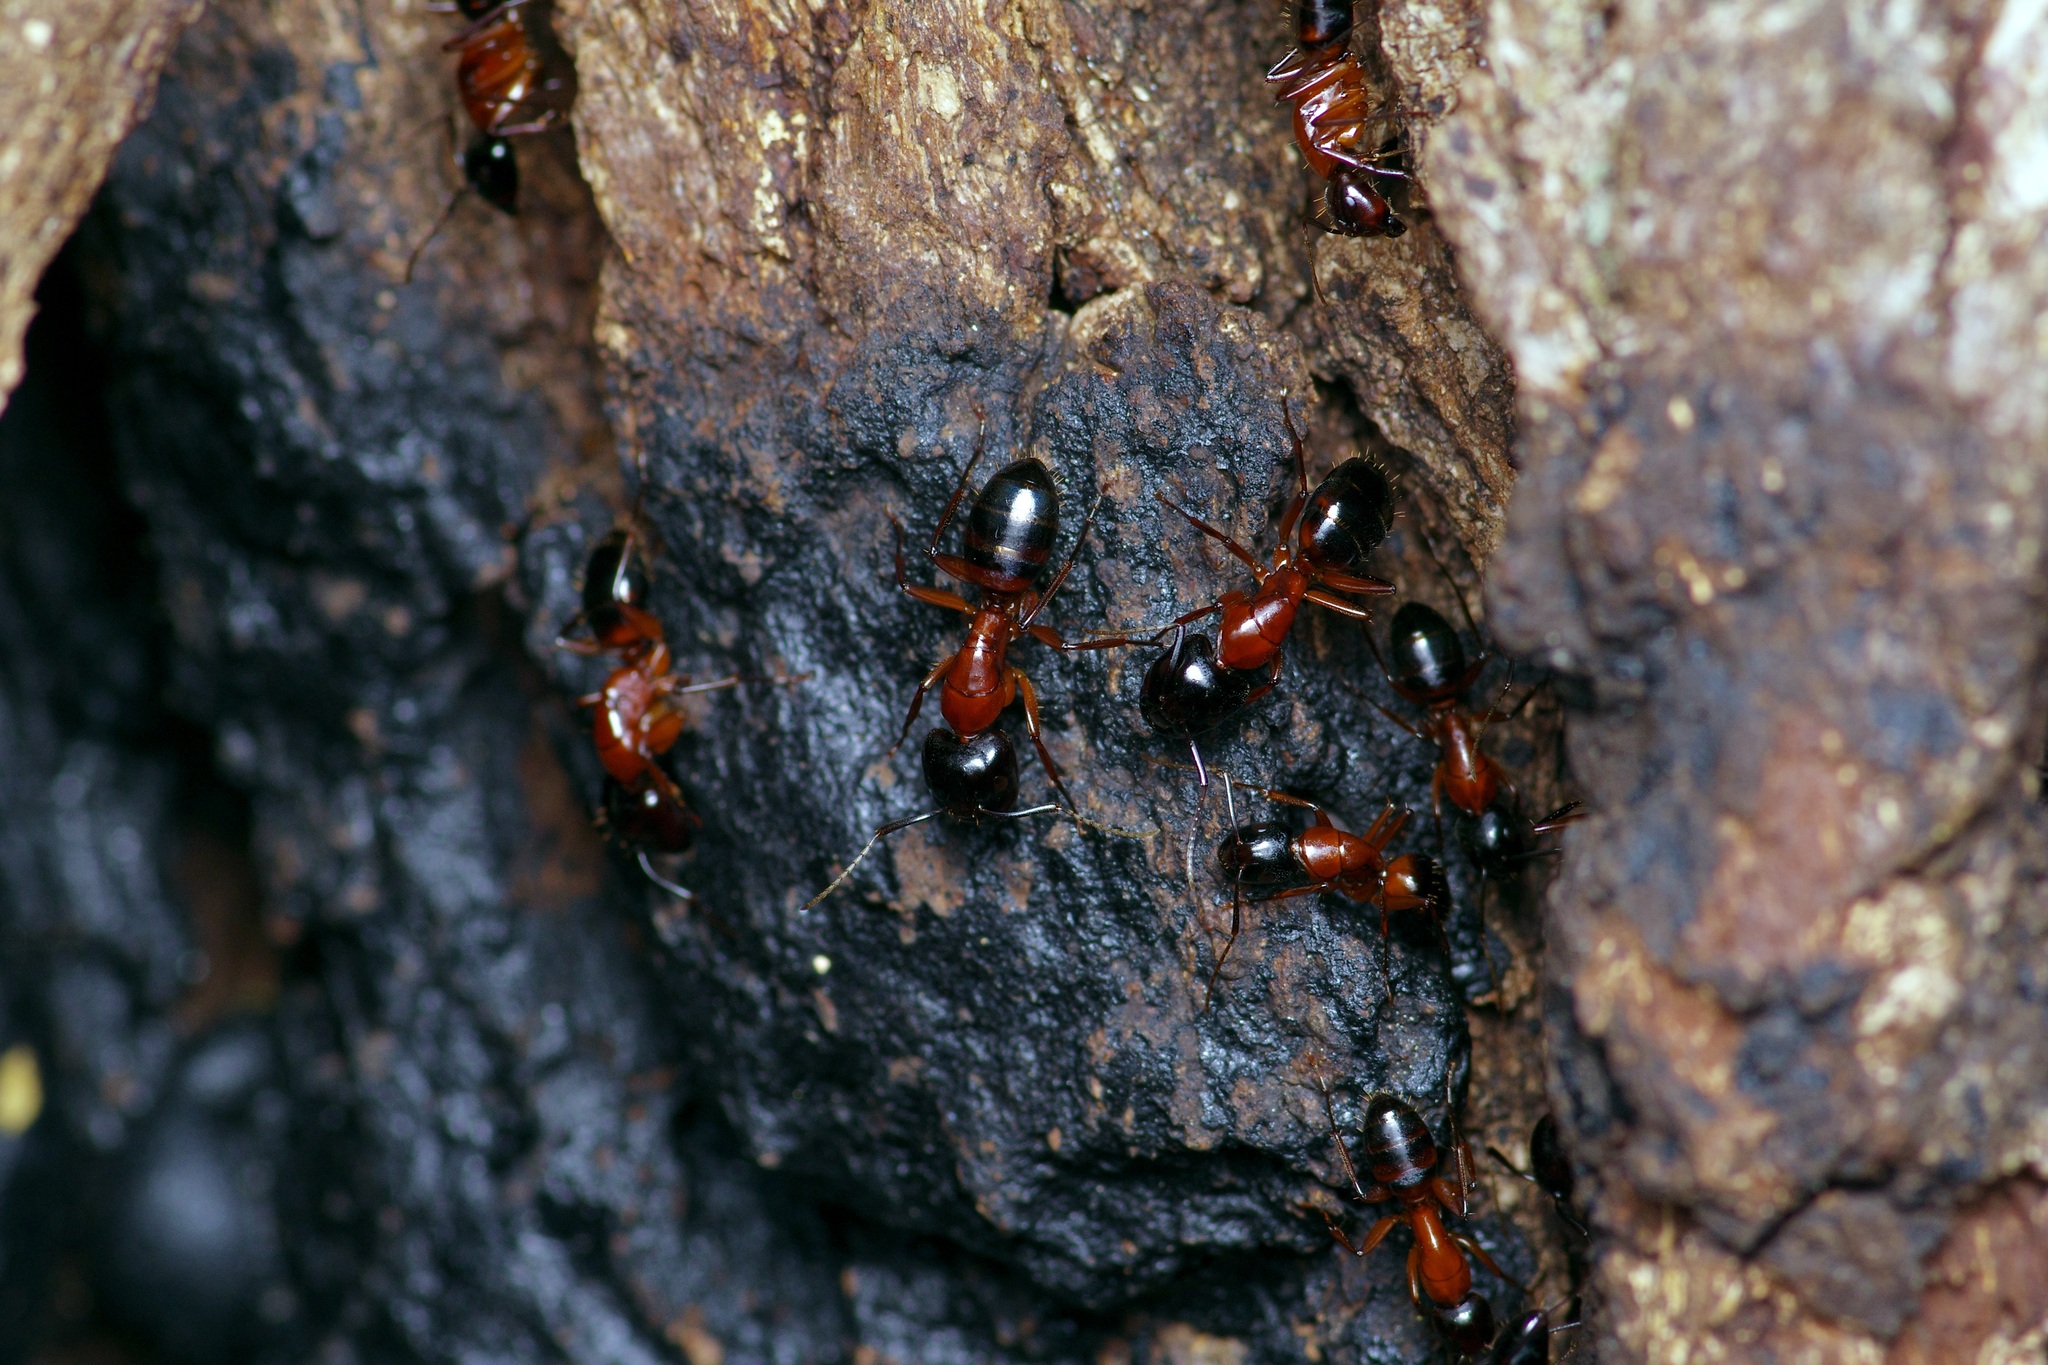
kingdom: Animalia
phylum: Arthropoda
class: Insecta
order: Hymenoptera
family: Formicidae
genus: Camponotus
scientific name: Camponotus texanus
